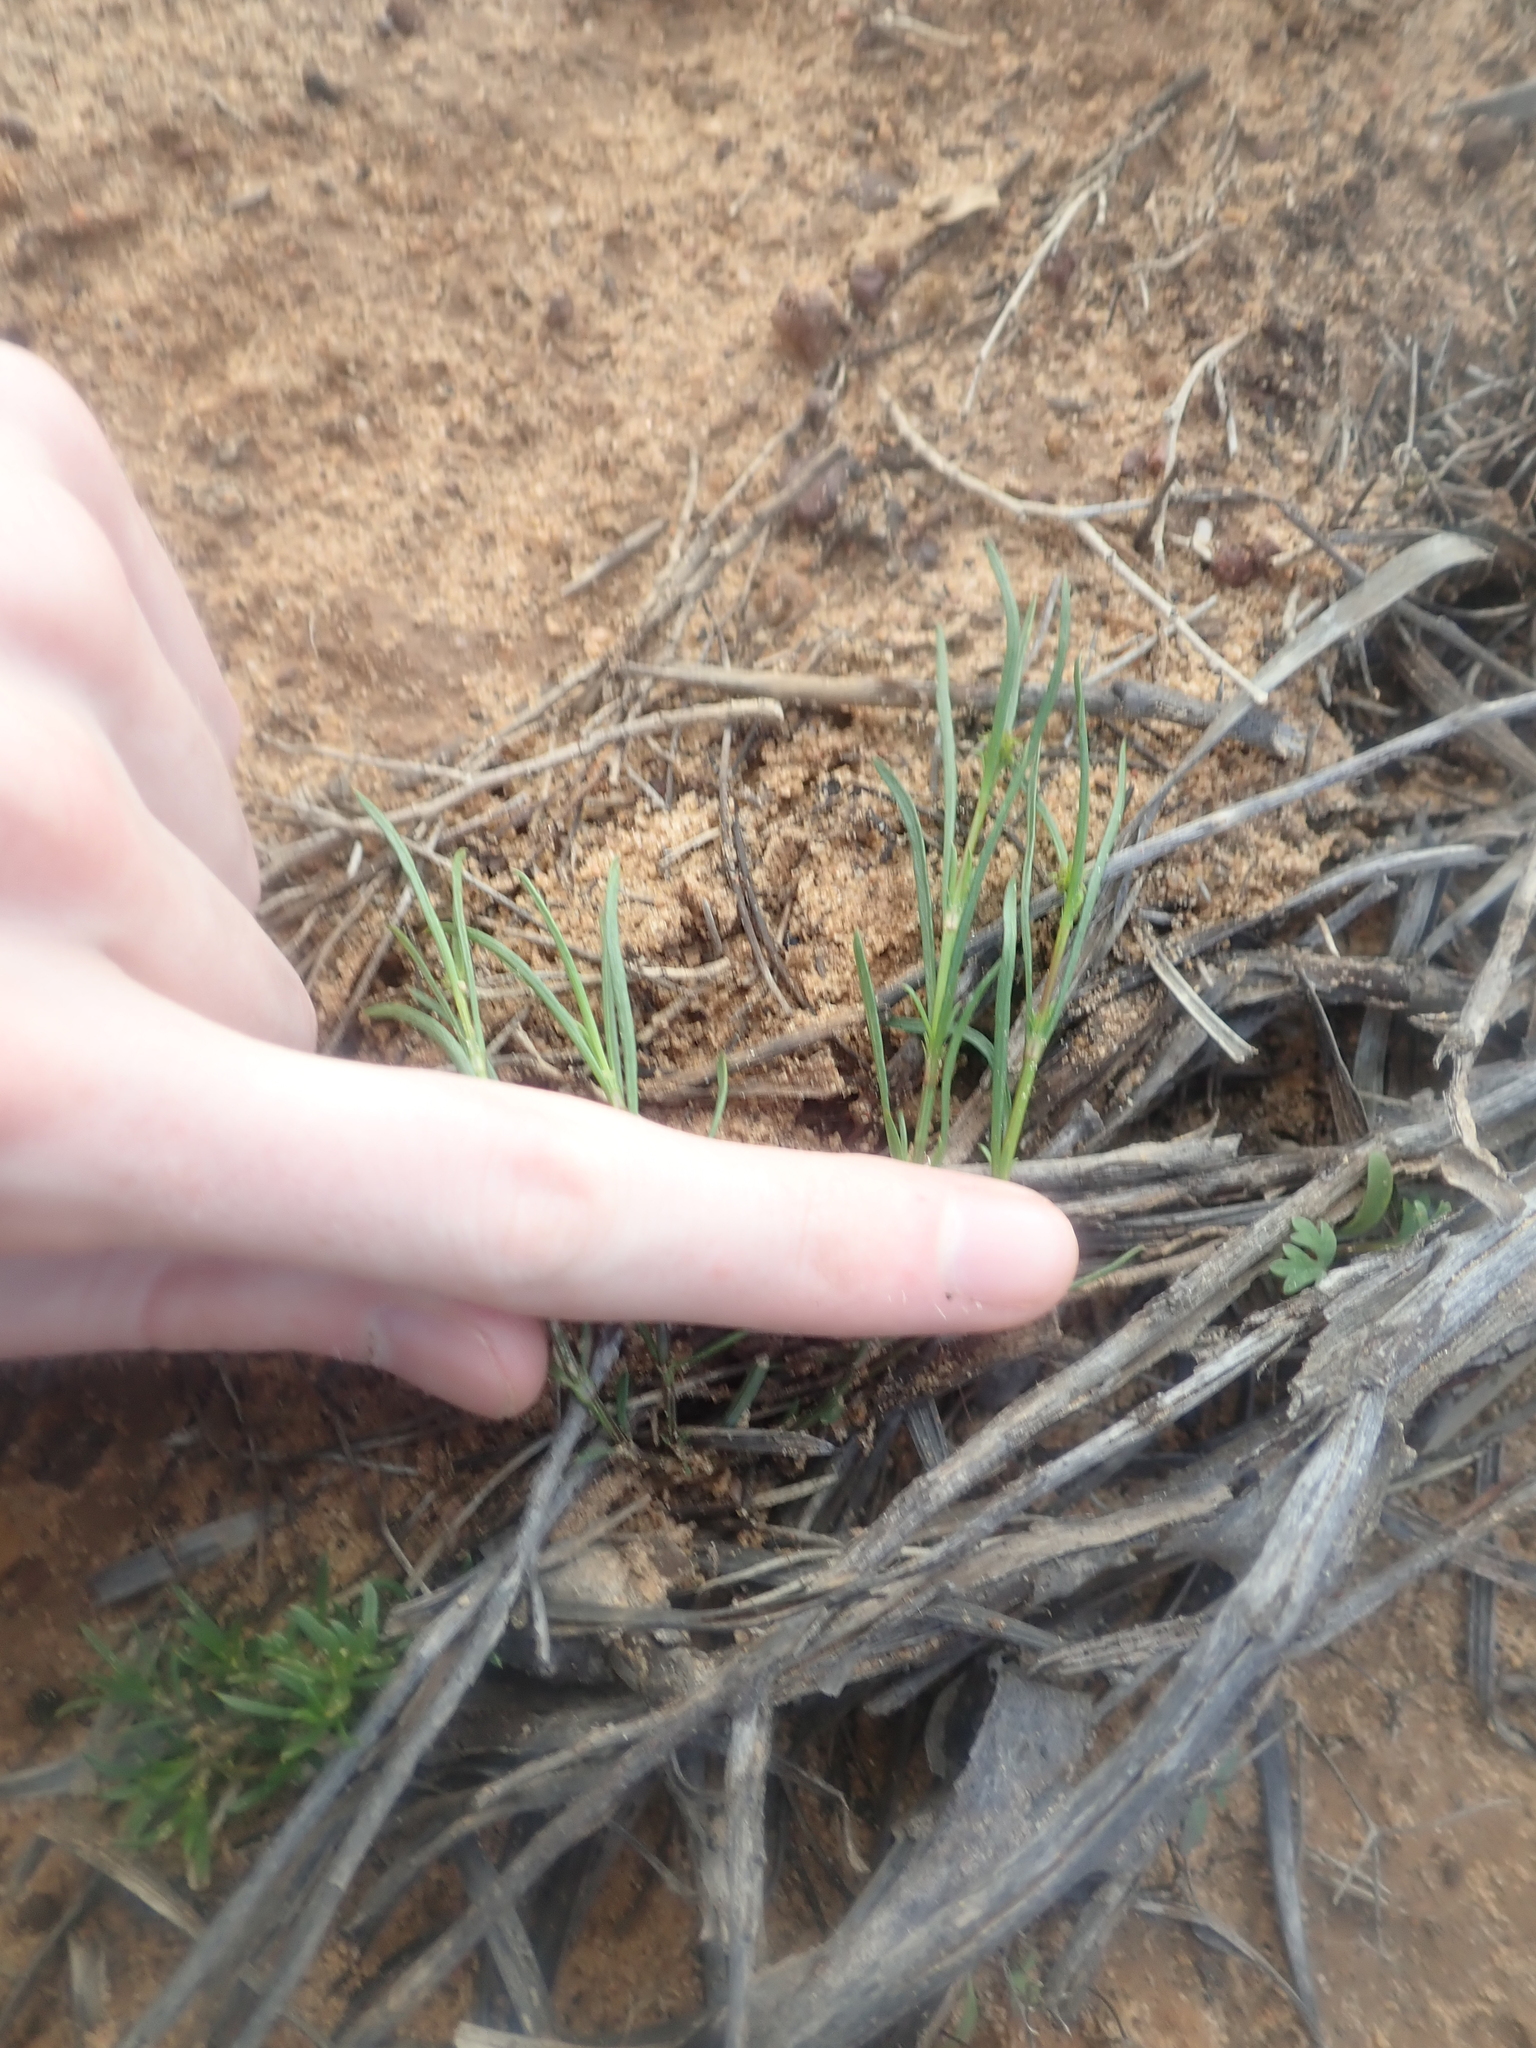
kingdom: Plantae
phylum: Tracheophyta
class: Magnoliopsida
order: Gentianales
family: Rubiaceae
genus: Opercularia
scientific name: Opercularia vaginata
